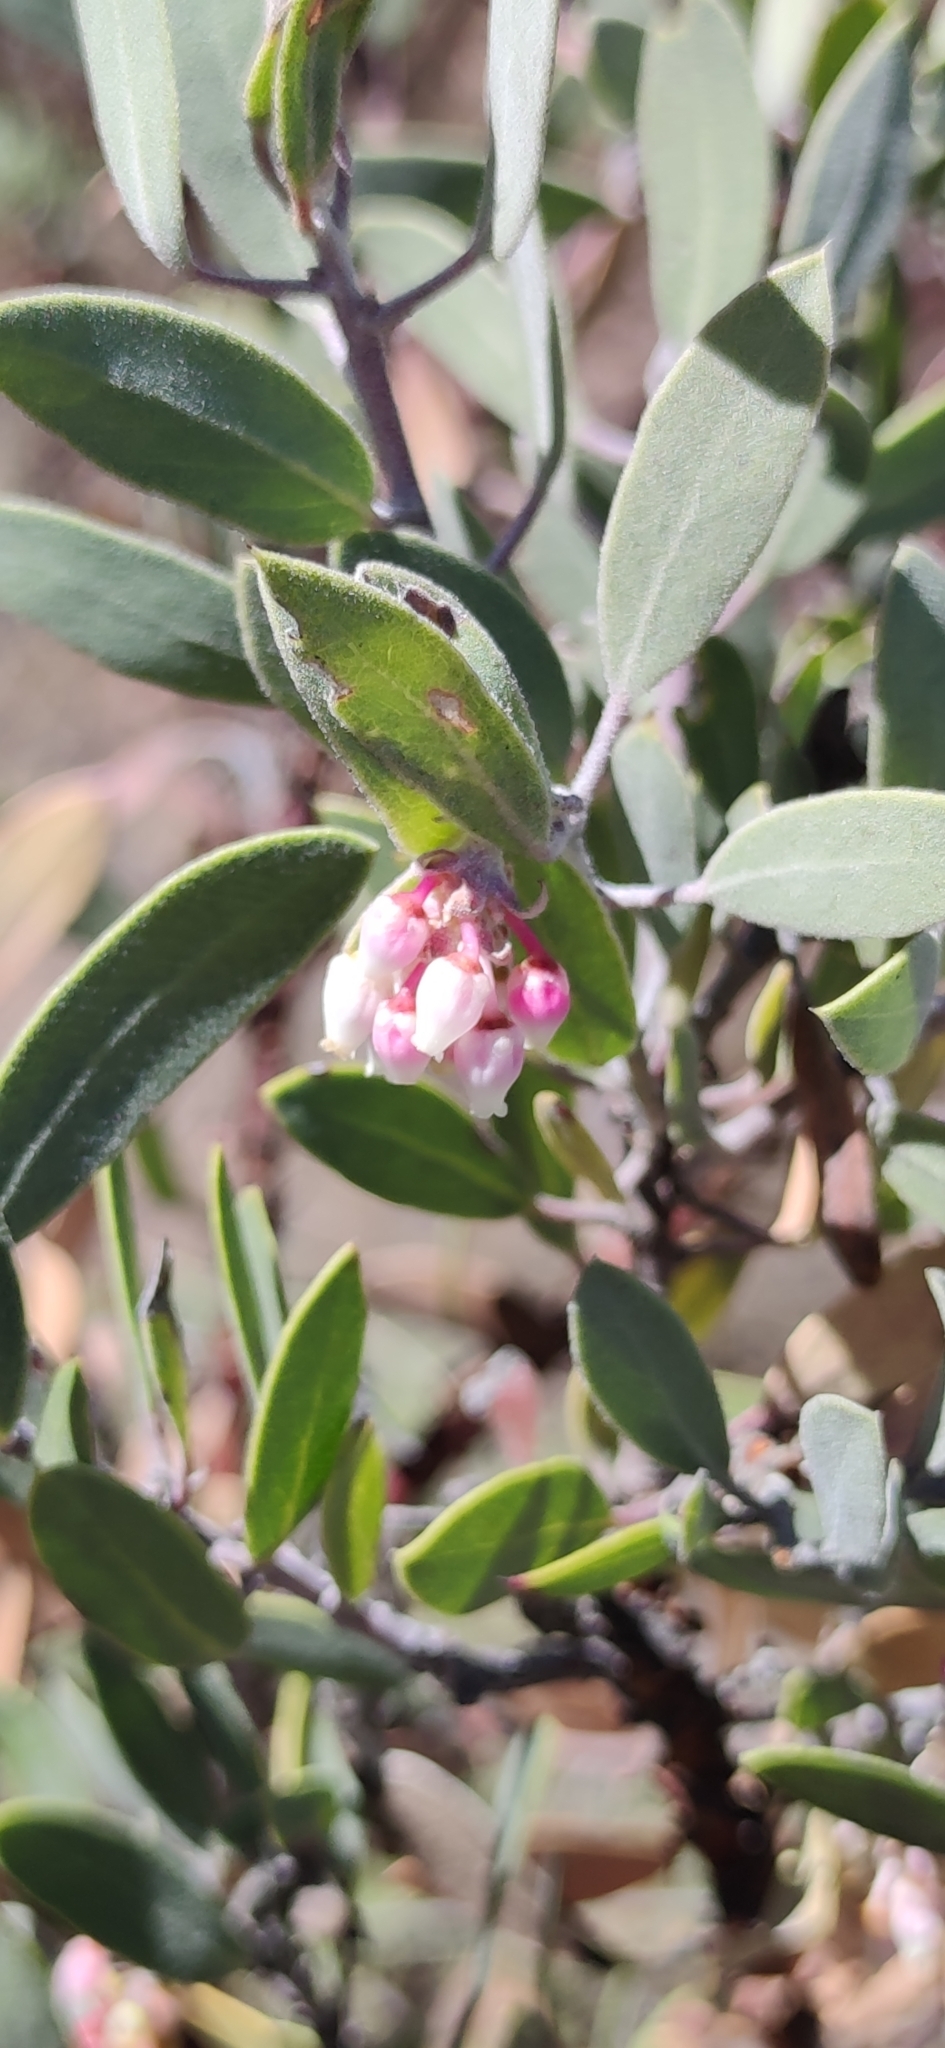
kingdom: Plantae
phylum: Tracheophyta
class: Magnoliopsida
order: Ericales
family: Ericaceae
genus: Arctostaphylos
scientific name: Arctostaphylos pungens
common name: Mexican manzanita
